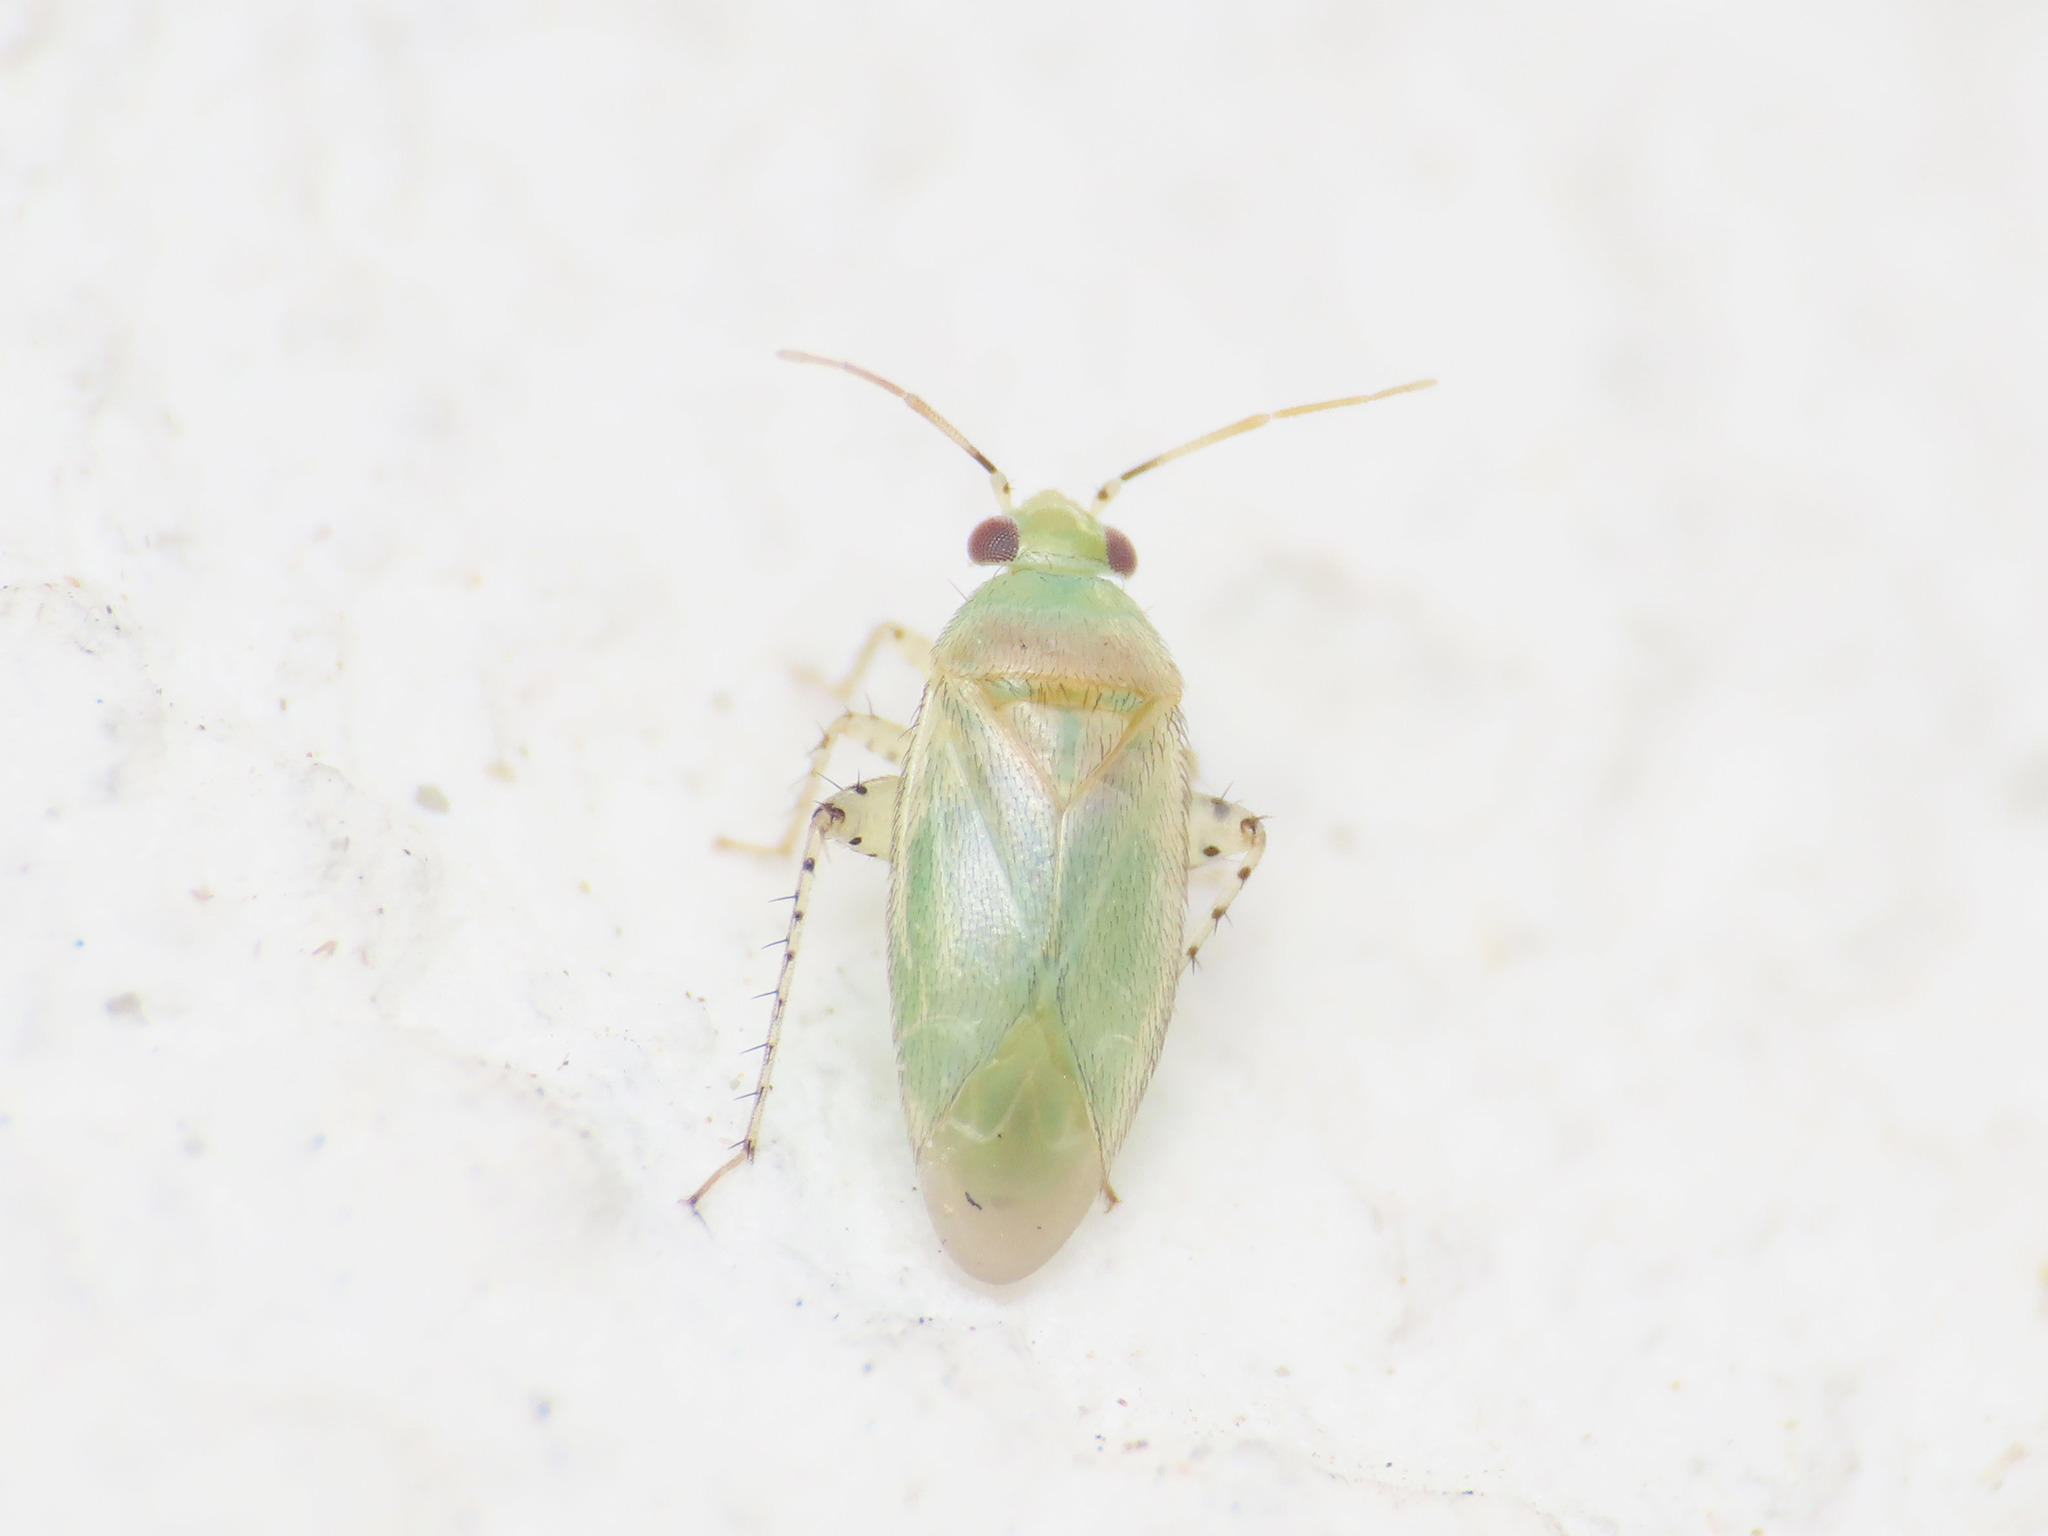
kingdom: Animalia
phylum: Arthropoda
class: Insecta
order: Hemiptera
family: Miridae
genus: Campylomma
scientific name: Campylomma verbasci
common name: Mullein bug
